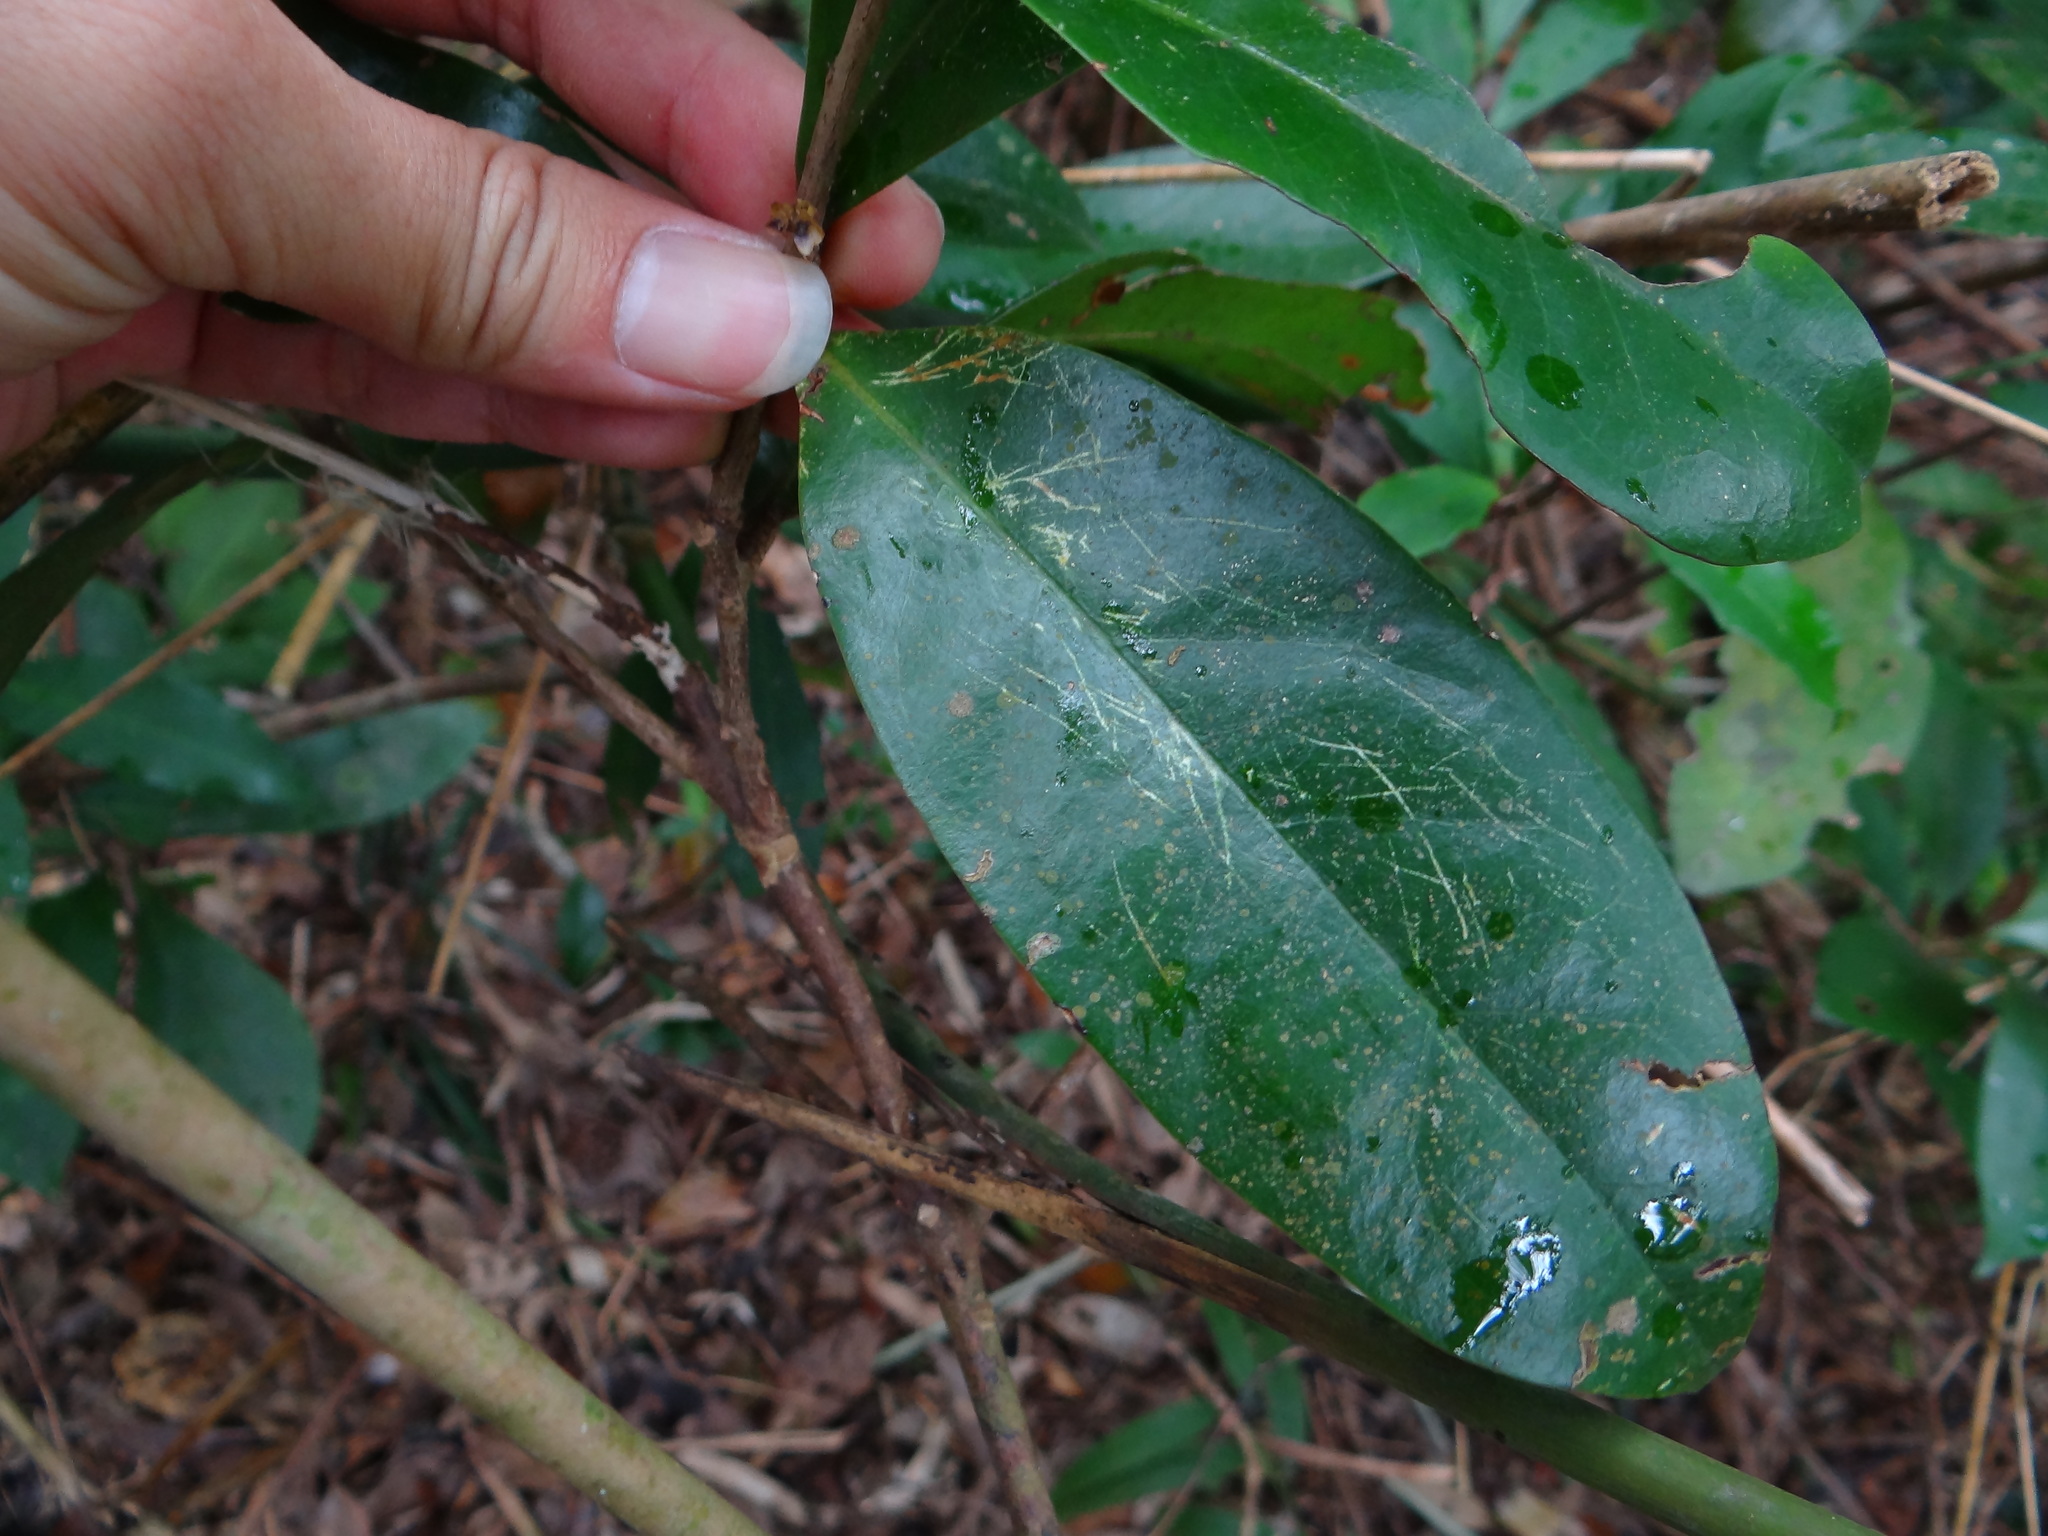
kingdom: Plantae
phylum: Tracheophyta
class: Magnoliopsida
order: Ericales
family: Symplocaceae
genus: Symplocos
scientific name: Symplocos congesta
